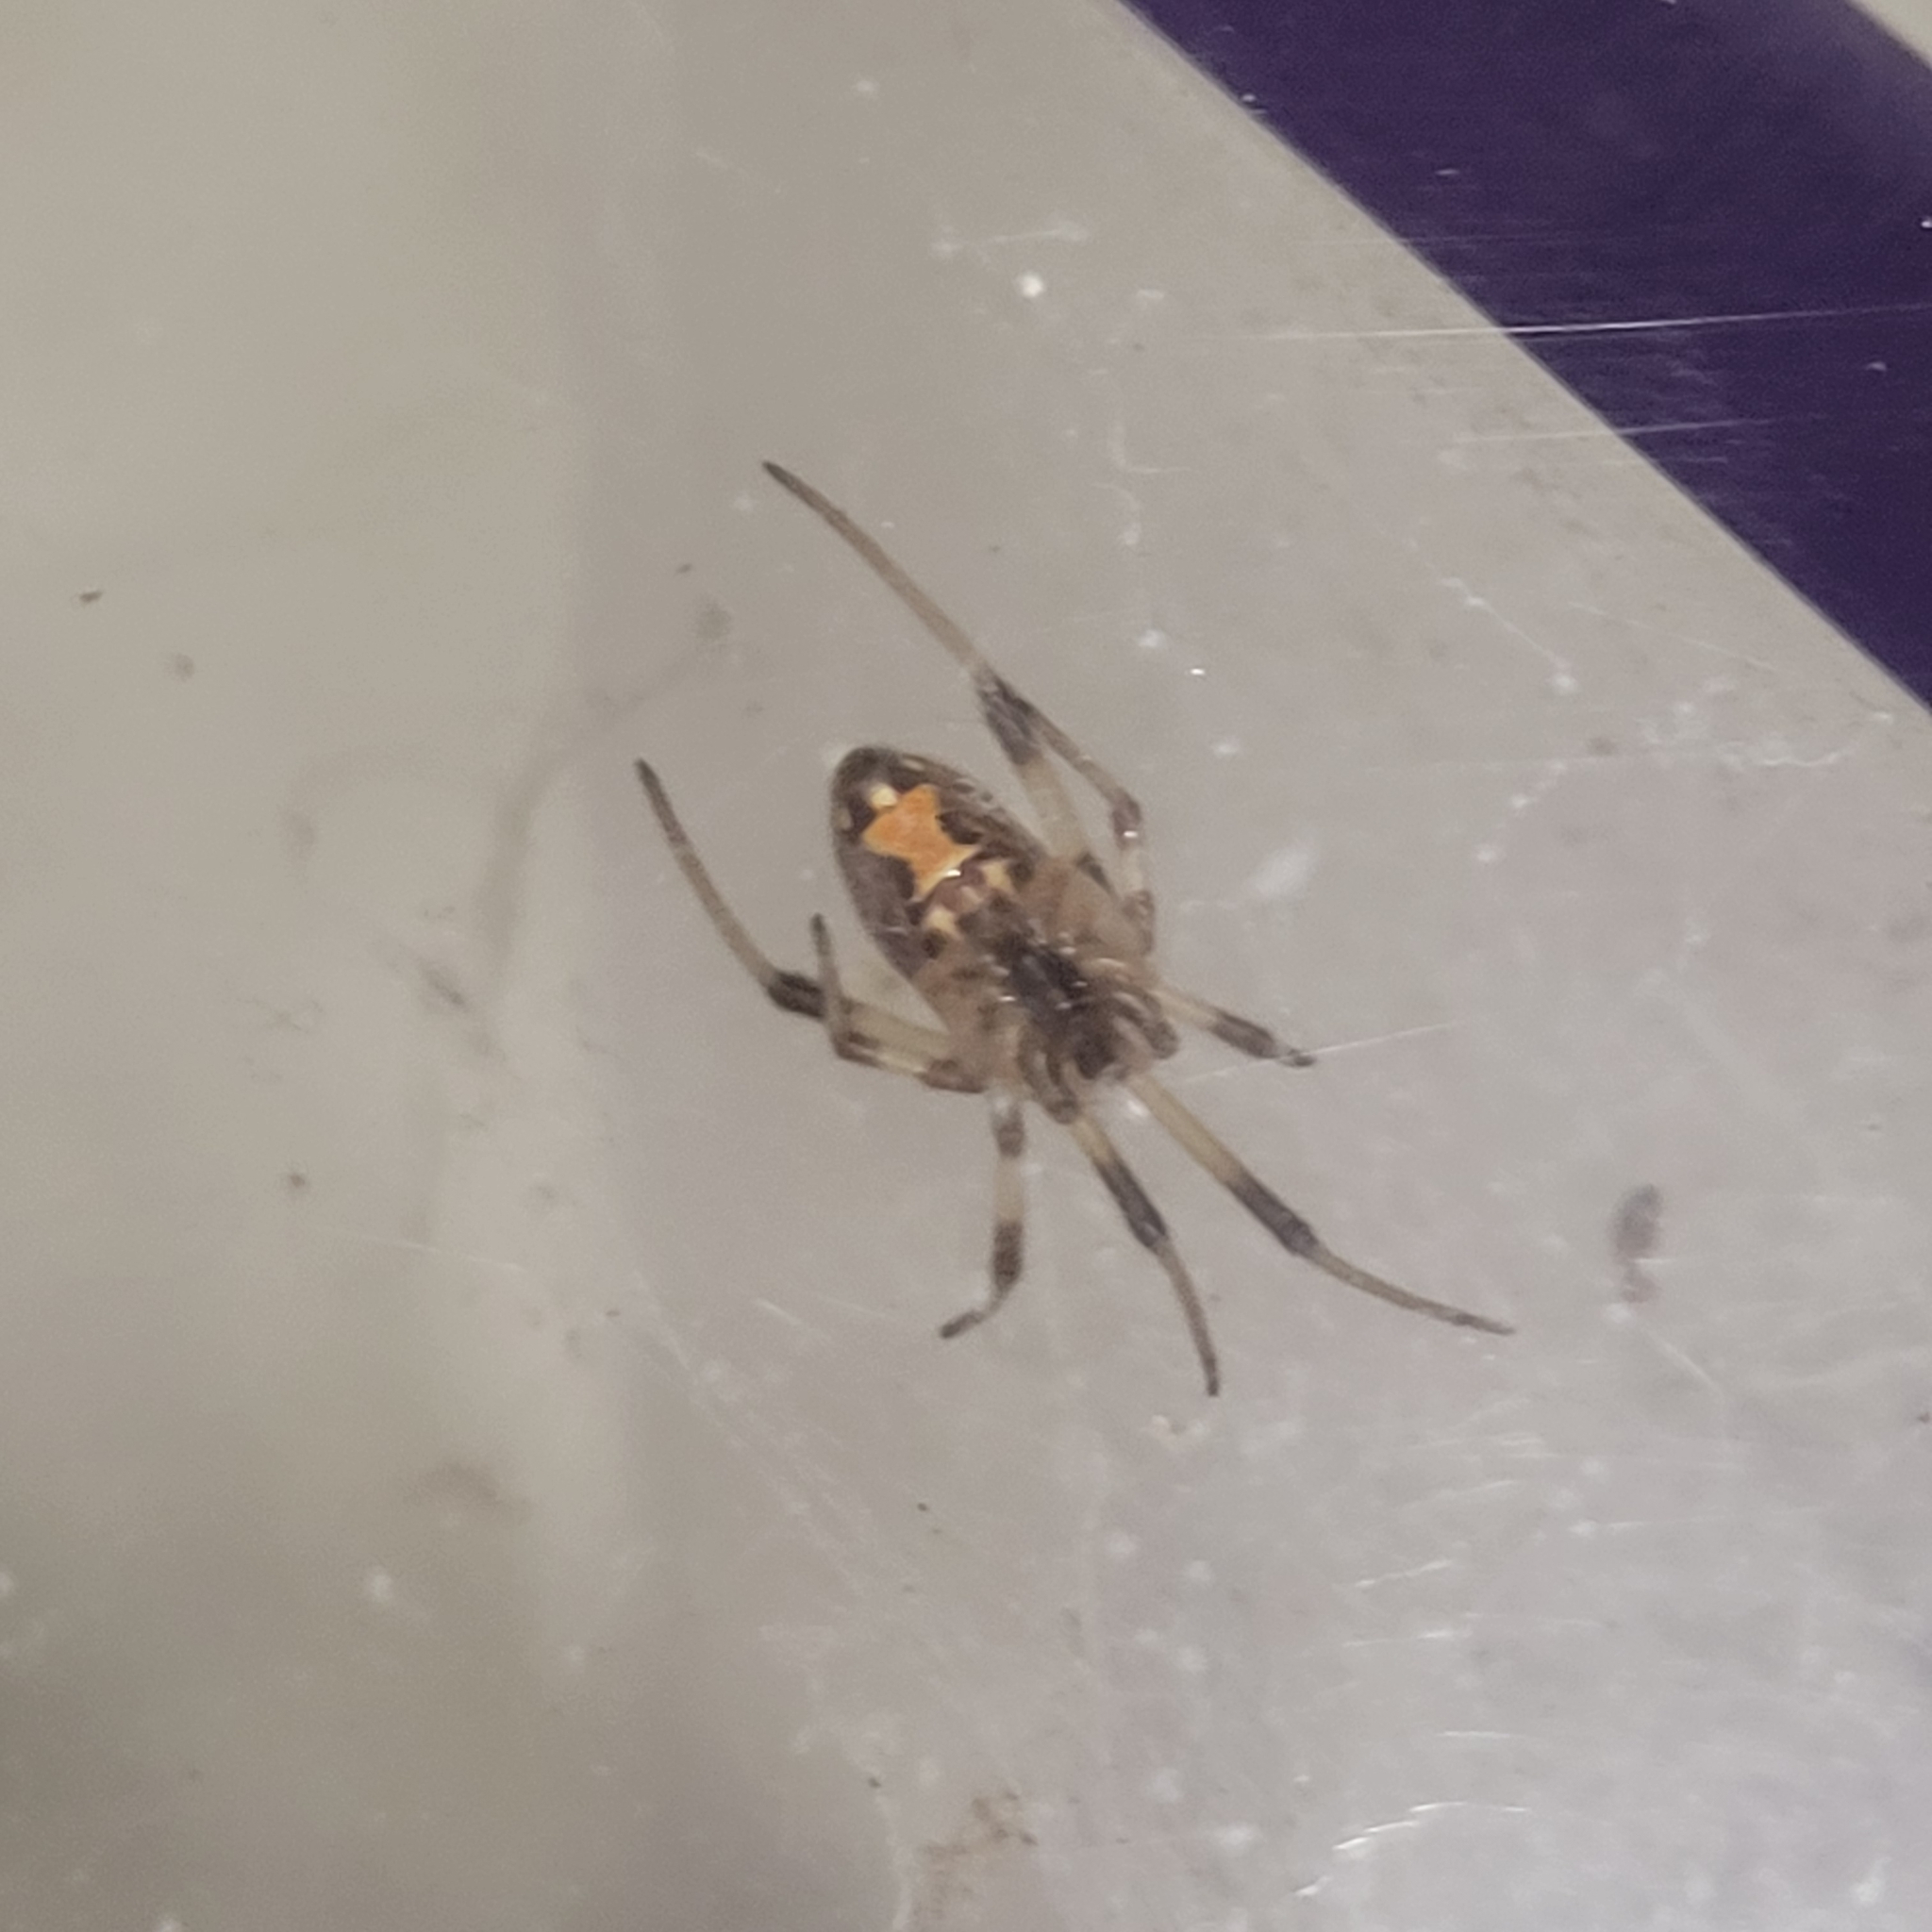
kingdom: Animalia
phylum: Arthropoda
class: Arachnida
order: Araneae
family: Theridiidae
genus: Latrodectus
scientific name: Latrodectus geometricus
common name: Brown widow spider
